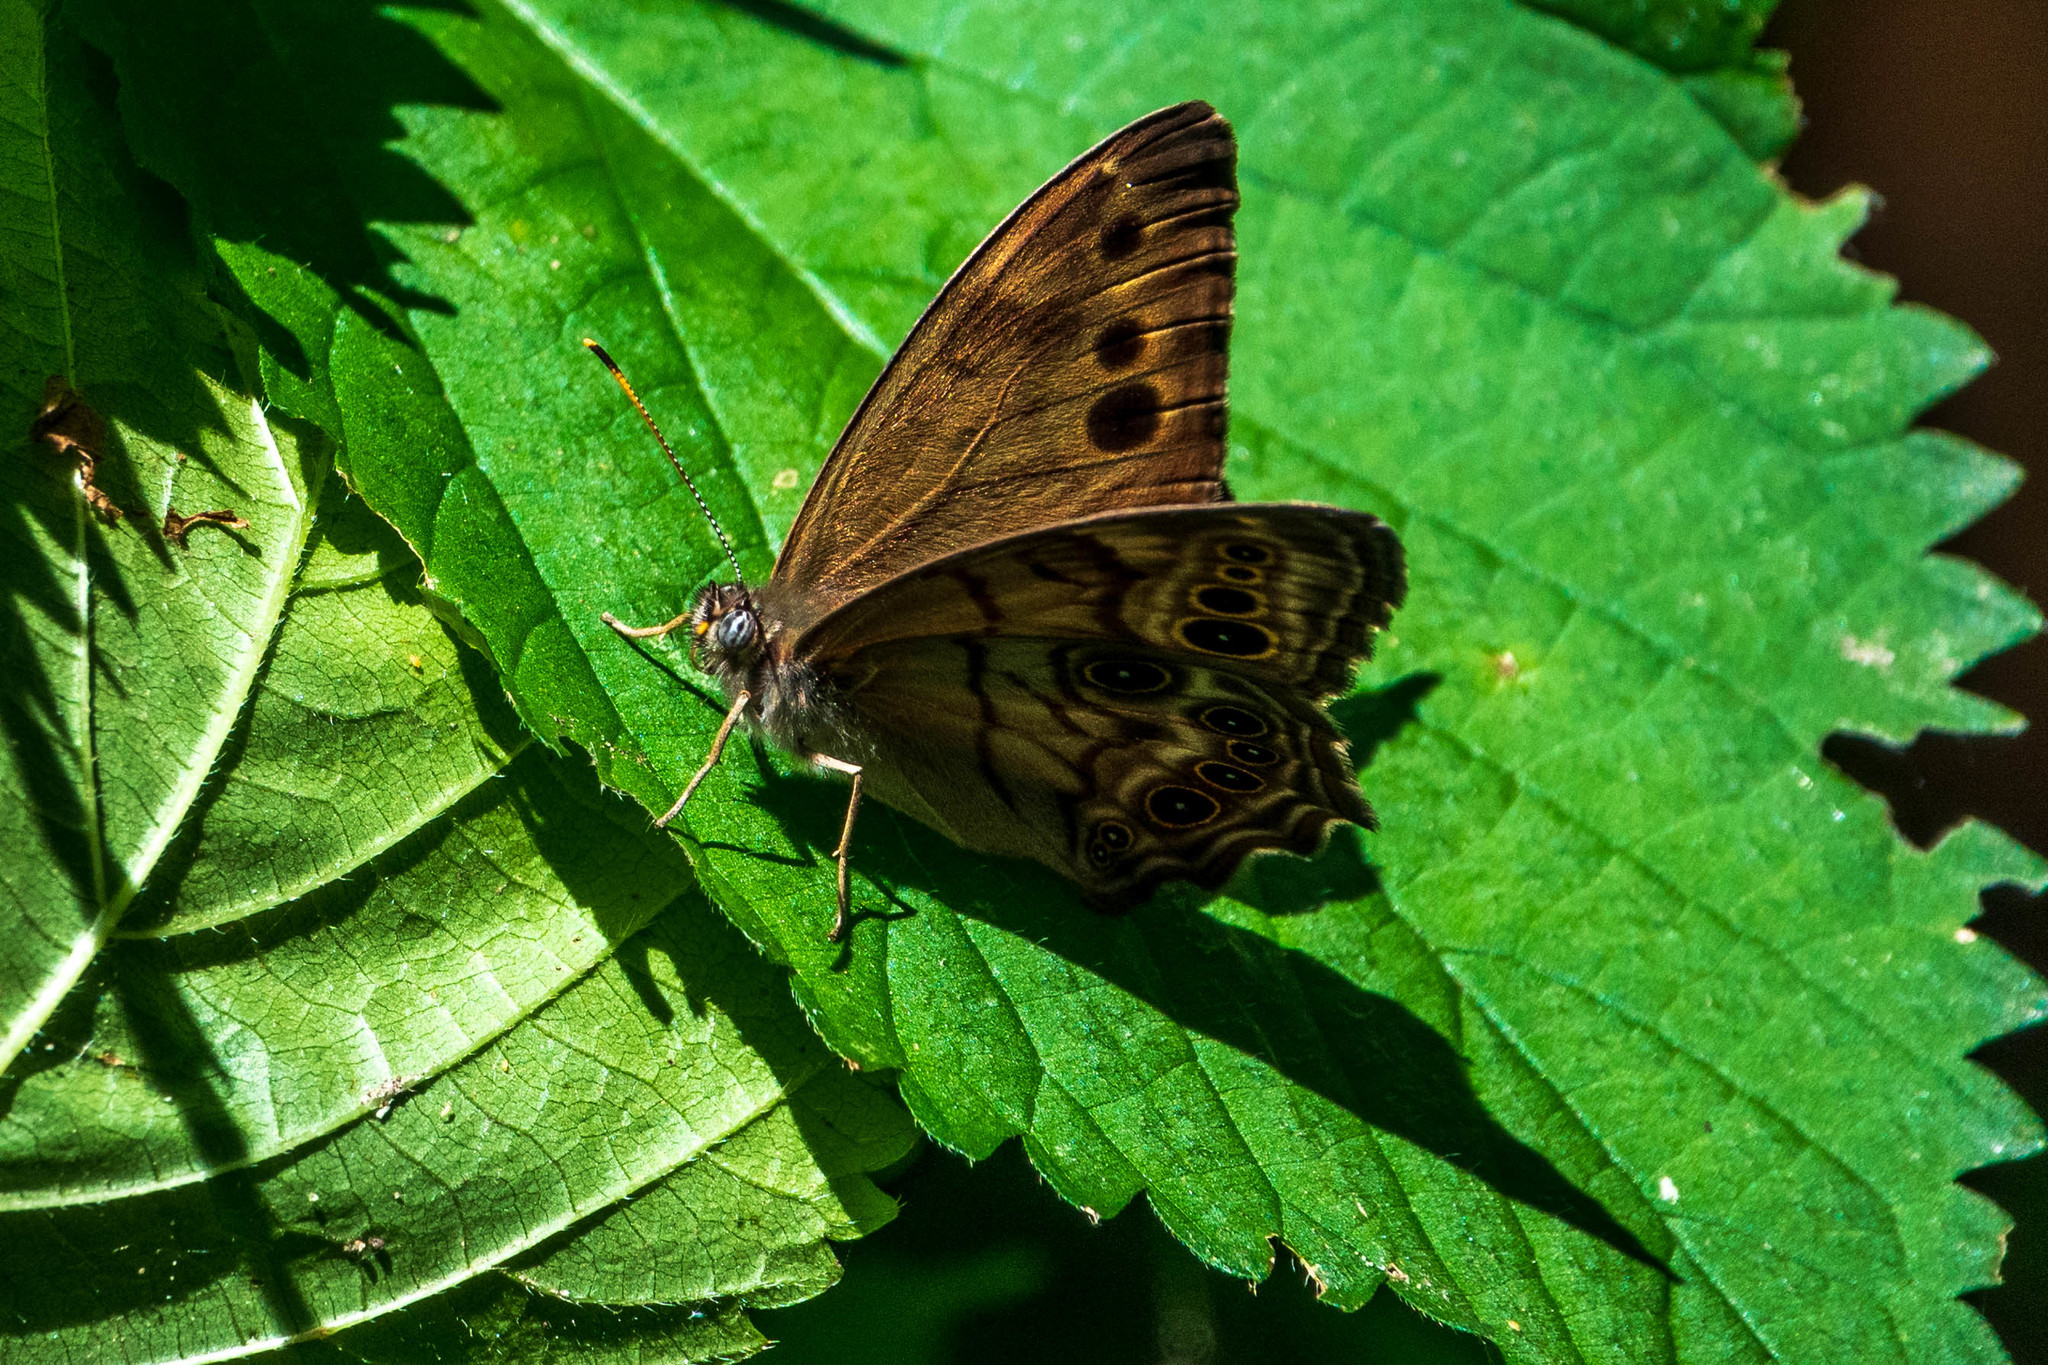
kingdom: Animalia
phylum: Arthropoda
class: Insecta
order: Lepidoptera
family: Nymphalidae
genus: Lethe
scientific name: Lethe anthedon
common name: Northern pearly-eye
